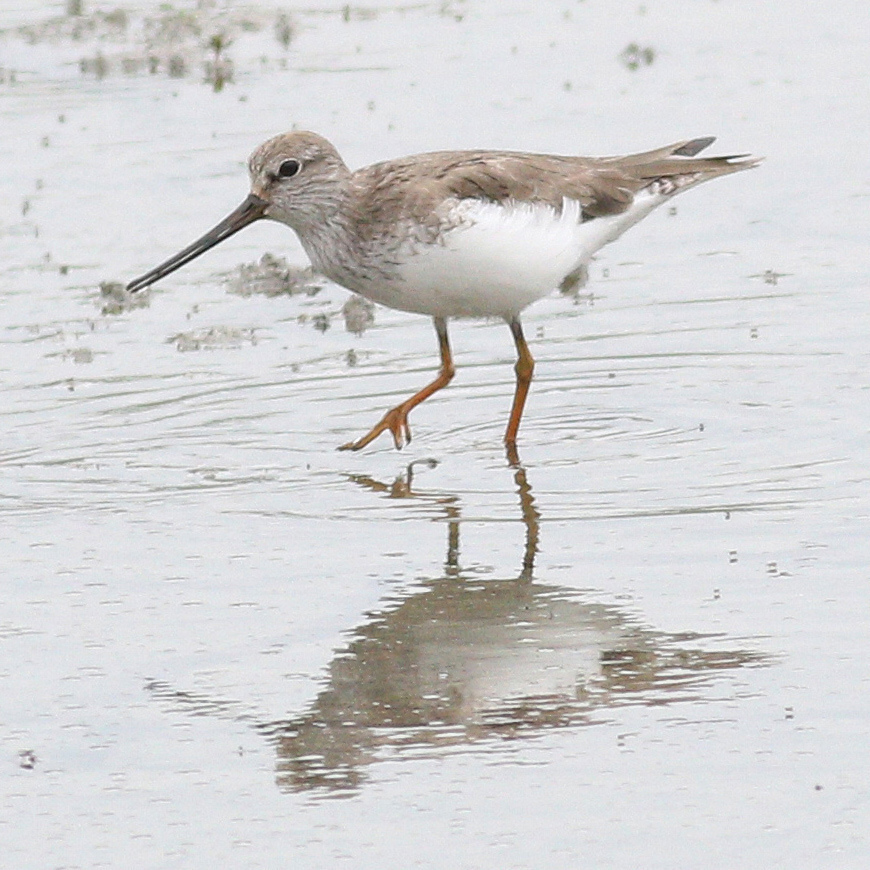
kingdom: Animalia
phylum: Chordata
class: Aves
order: Charadriiformes
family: Scolopacidae
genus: Xenus
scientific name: Xenus cinereus
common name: Terek sandpiper
